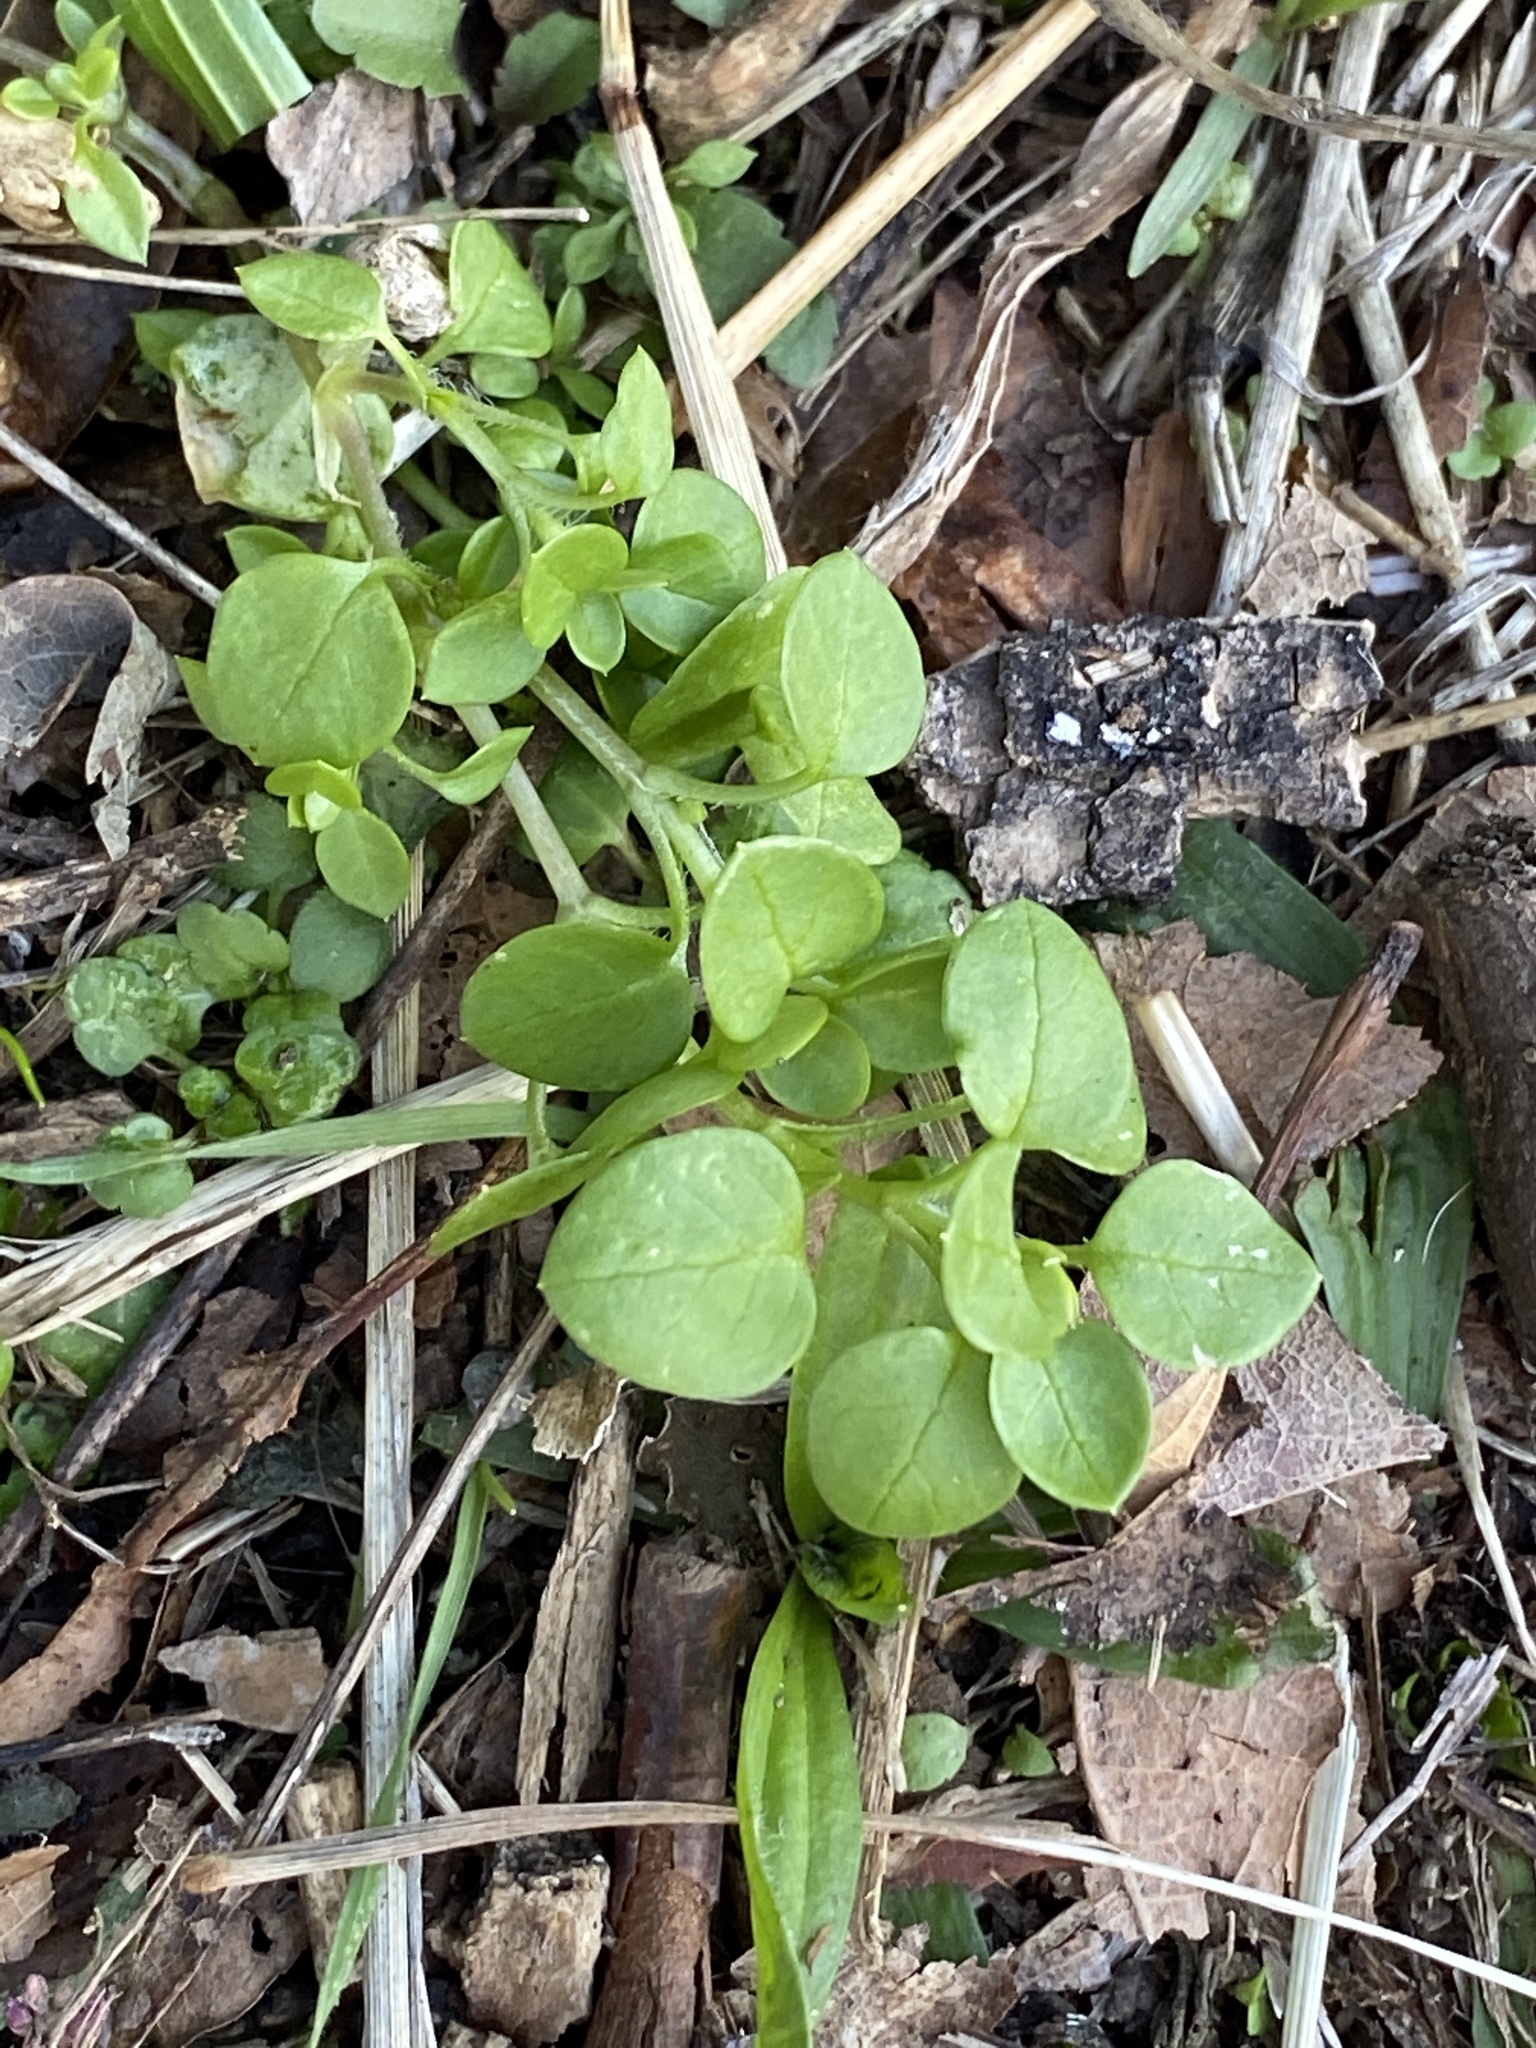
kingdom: Plantae
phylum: Tracheophyta
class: Magnoliopsida
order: Caryophyllales
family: Caryophyllaceae
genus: Stellaria
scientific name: Stellaria media
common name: Common chickweed
